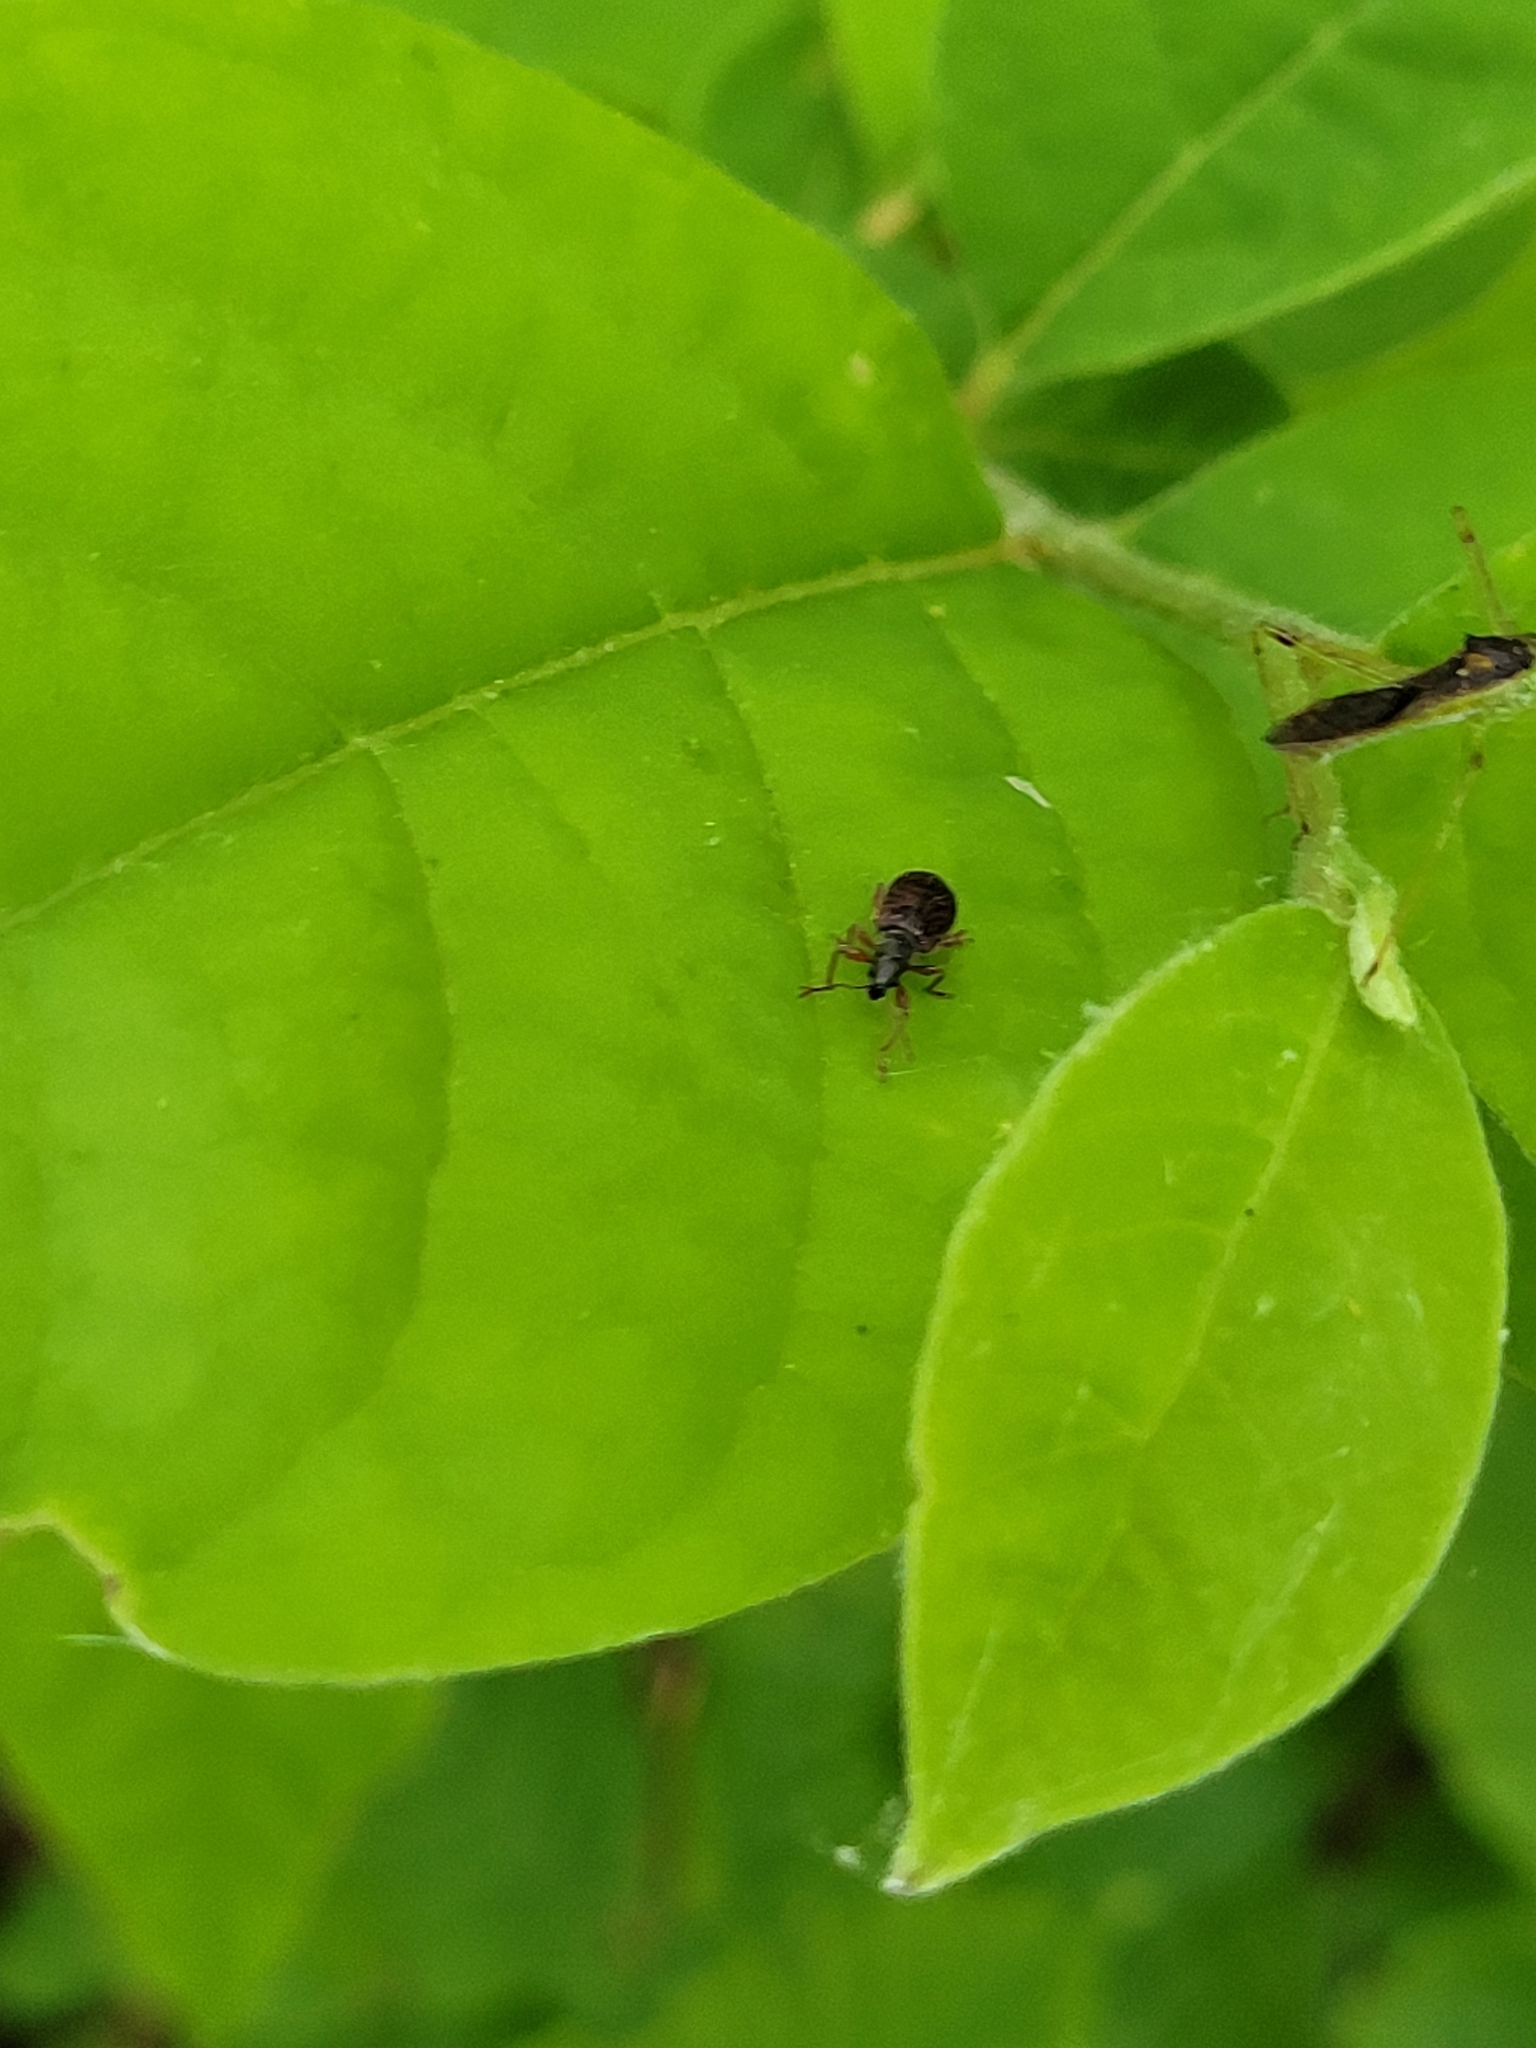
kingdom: Animalia
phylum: Arthropoda
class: Insecta
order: Coleoptera
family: Curculionidae
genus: Phyllobius
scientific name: Phyllobius oblongus
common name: Brown leaf weevil
